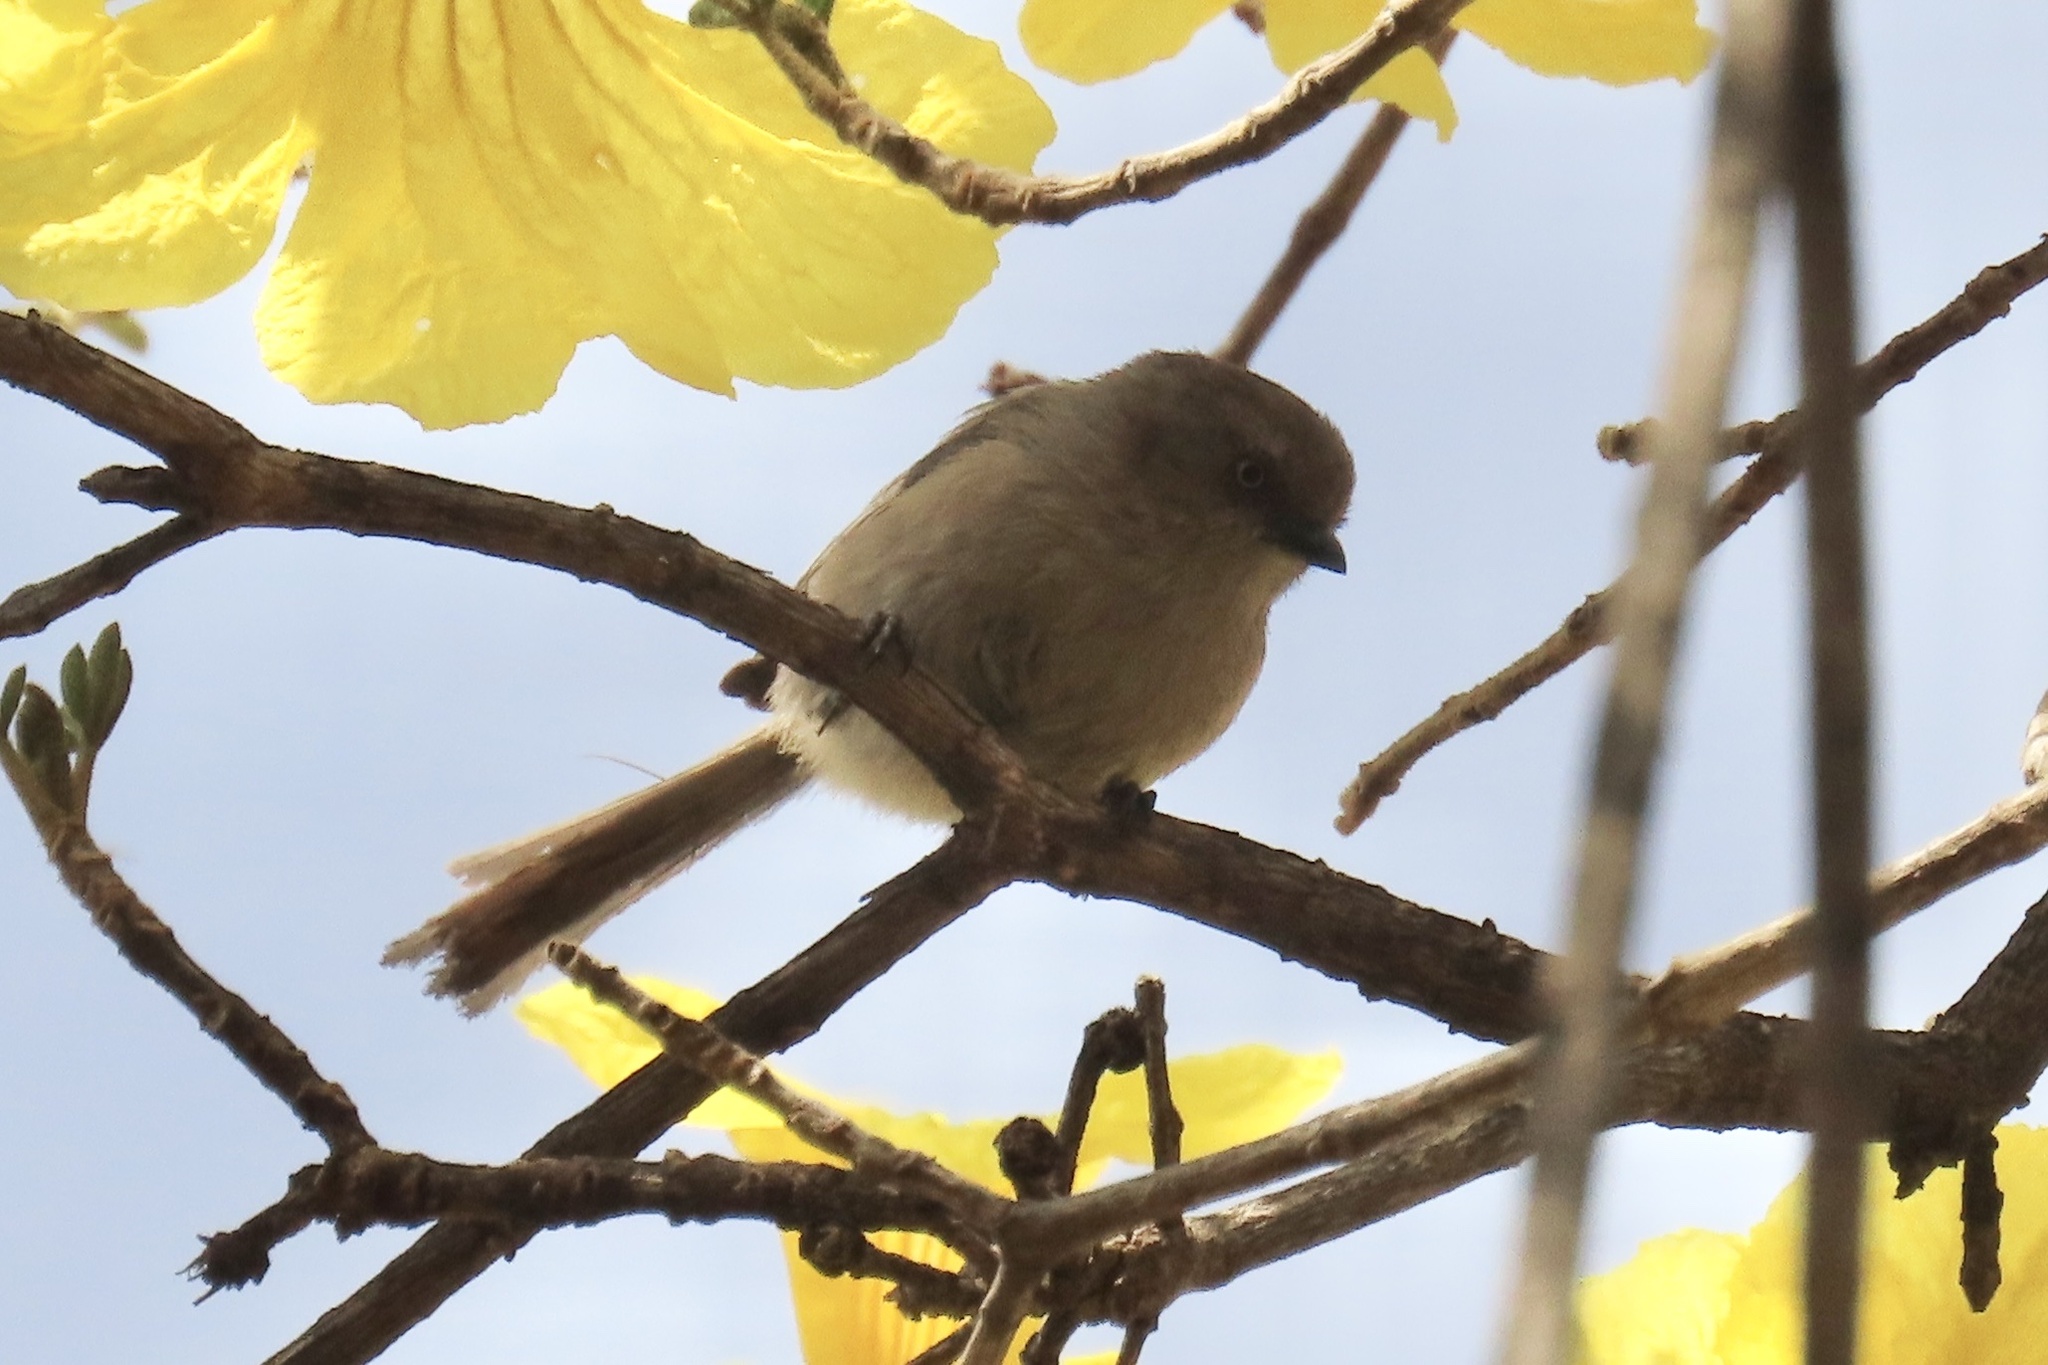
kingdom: Animalia
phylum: Chordata
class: Aves
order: Passeriformes
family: Aegithalidae
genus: Psaltriparus
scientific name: Psaltriparus minimus
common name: American bushtit
